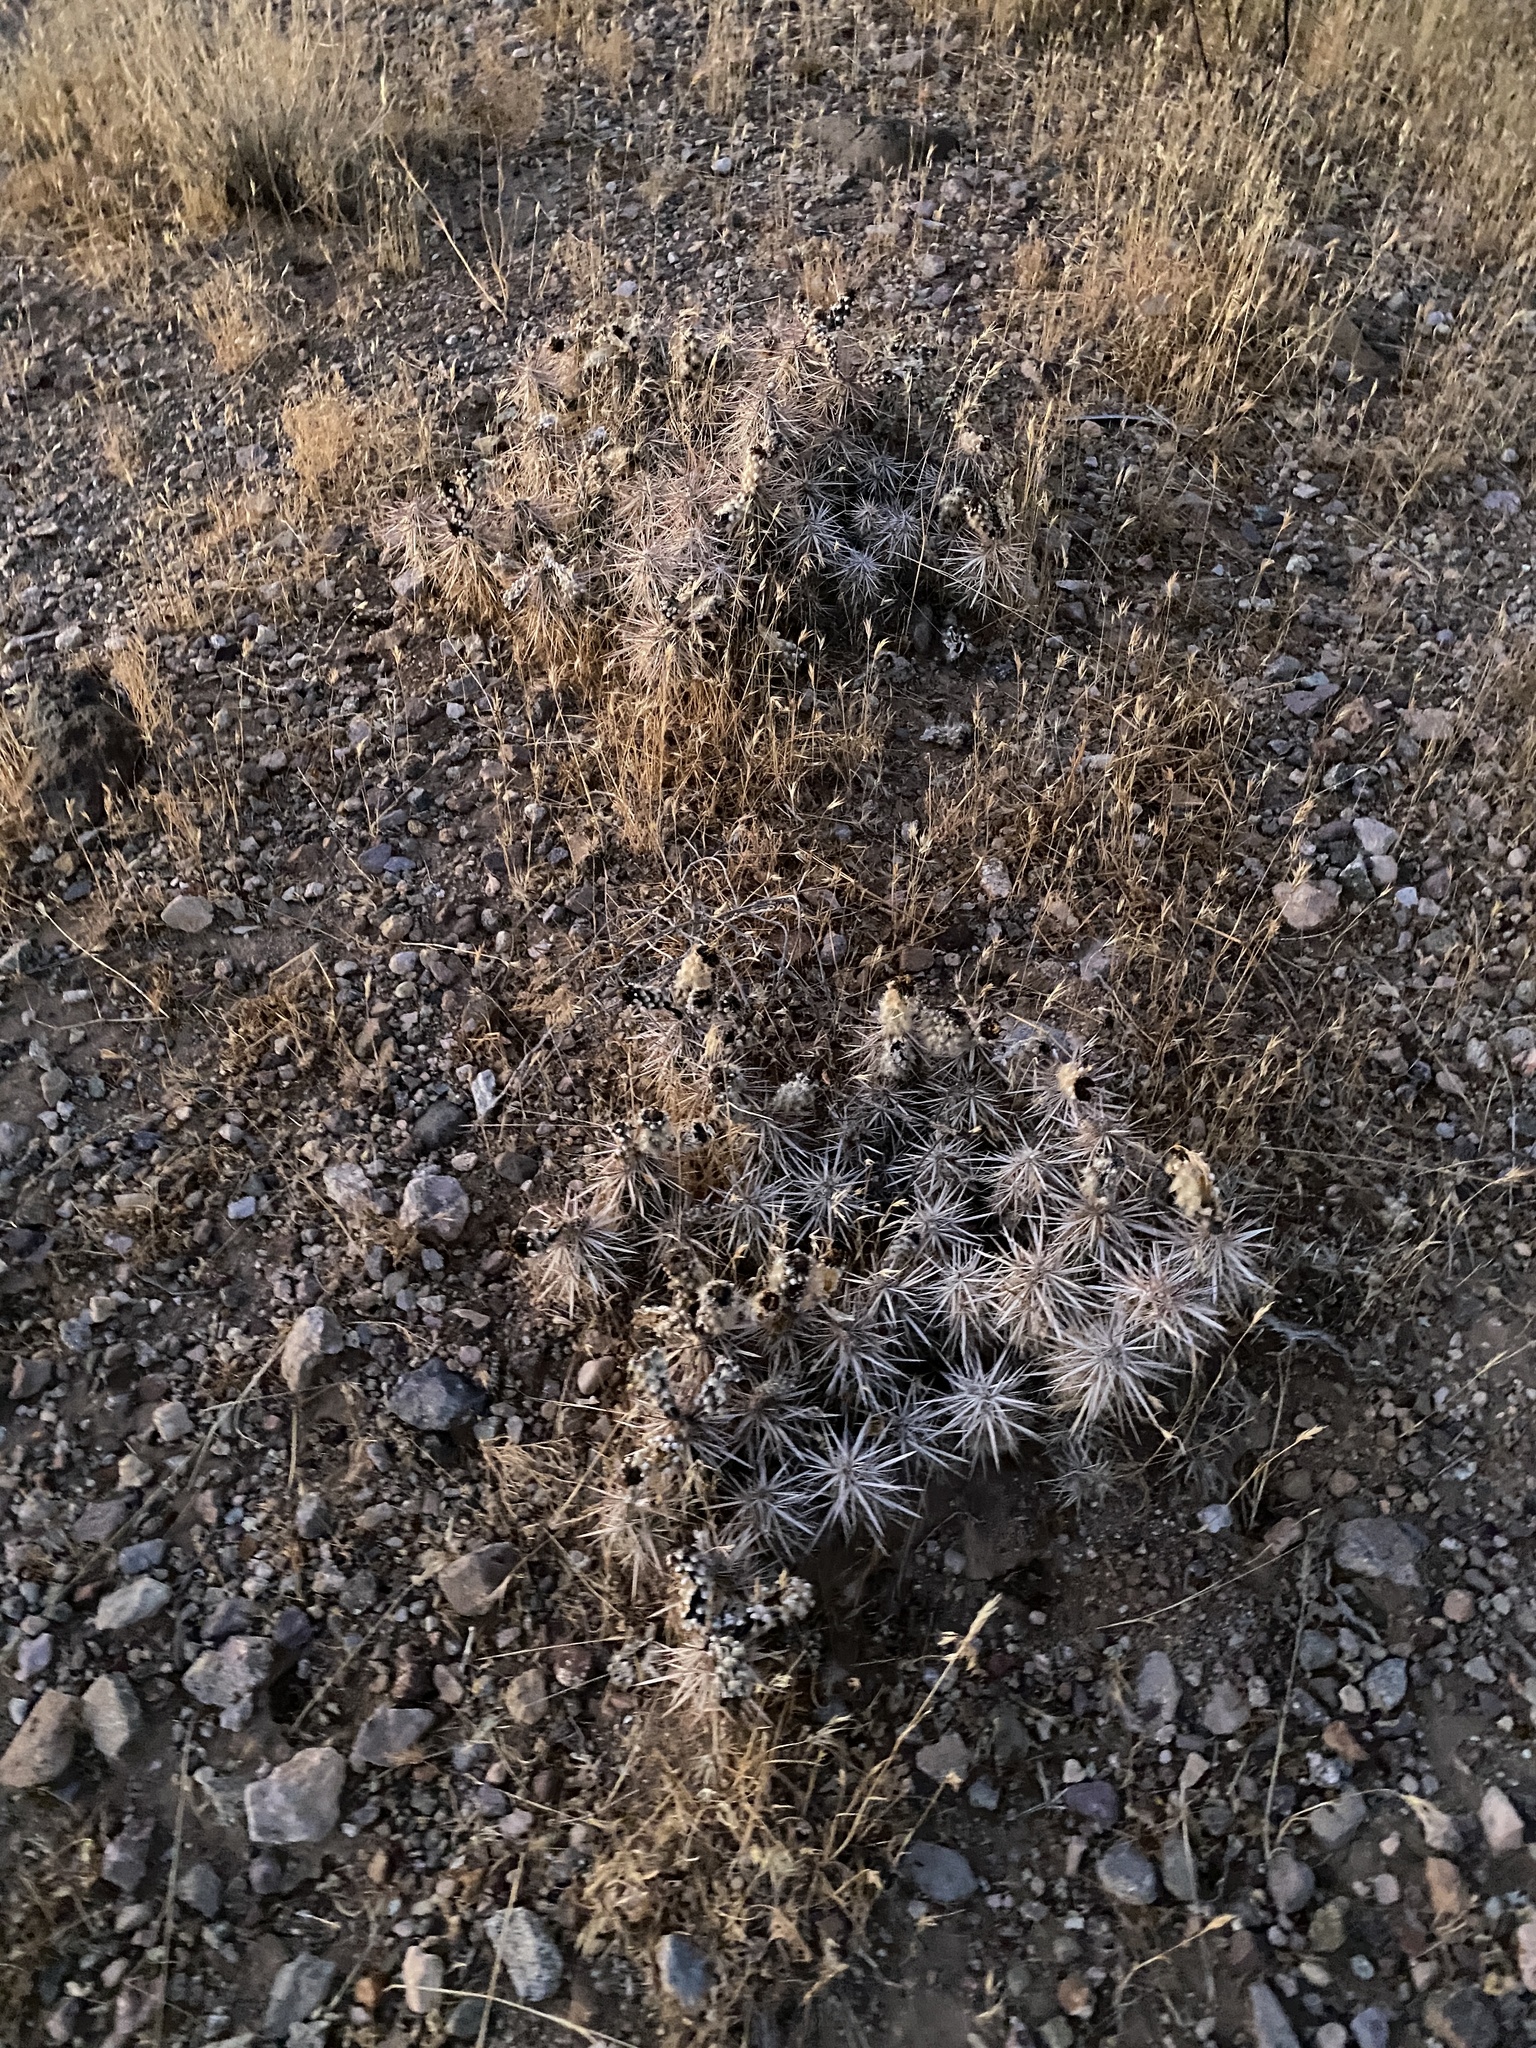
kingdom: Plantae
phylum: Tracheophyta
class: Magnoliopsida
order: Caryophyllales
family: Cactaceae
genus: Grusonia
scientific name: Grusonia parishiorum
